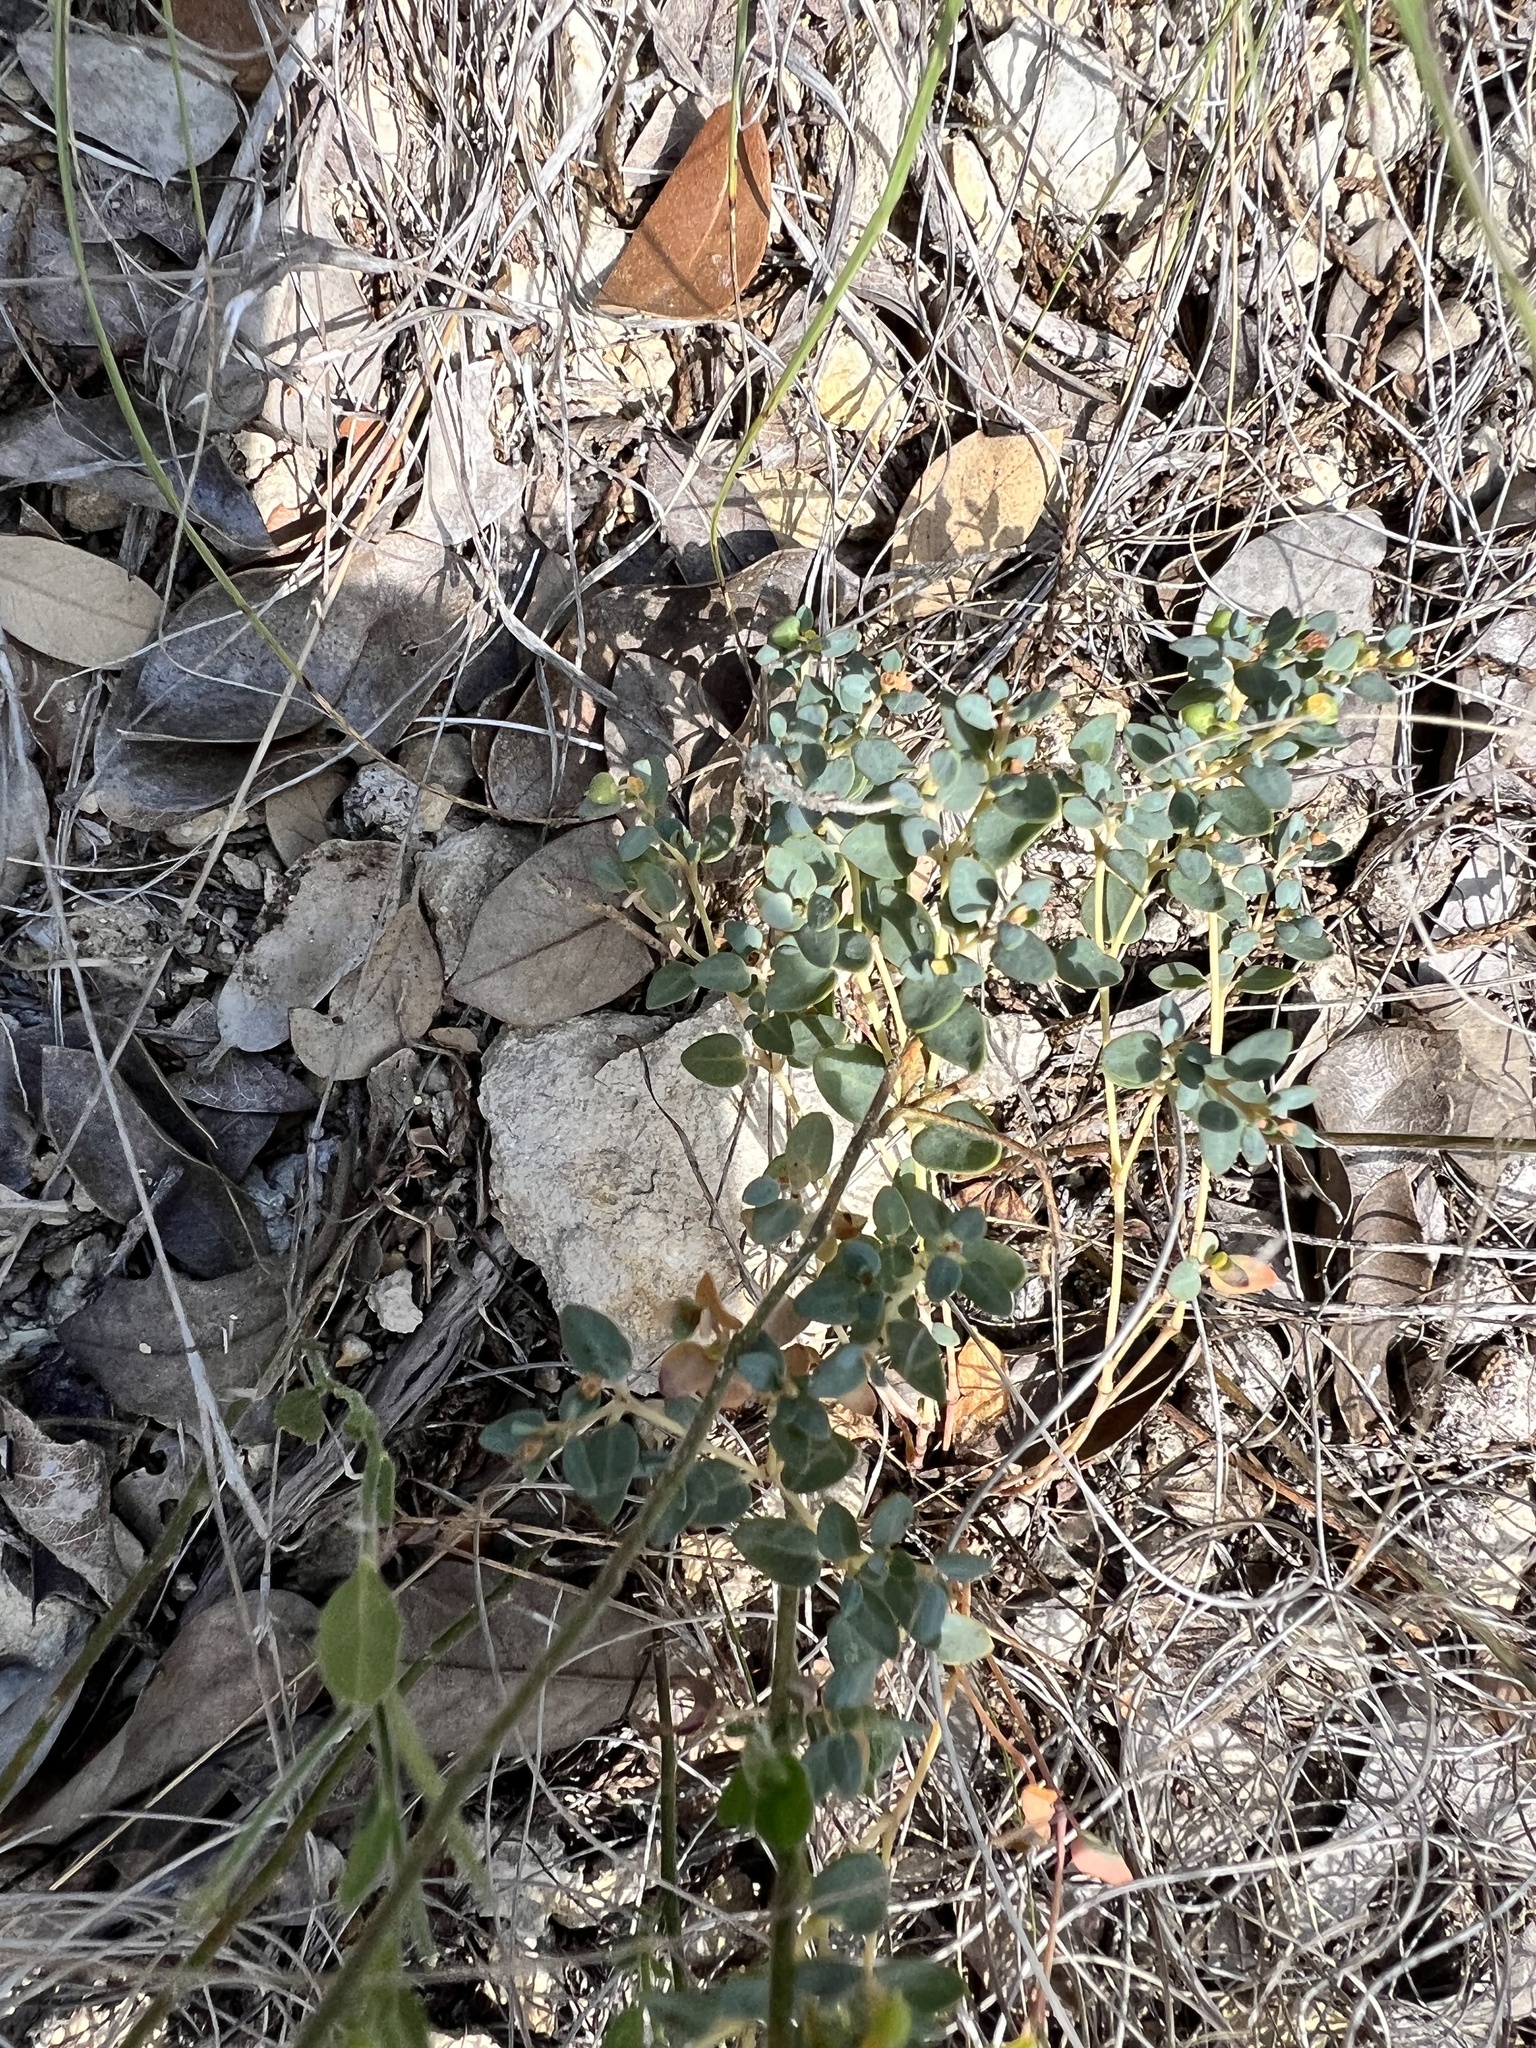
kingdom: Plantae
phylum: Tracheophyta
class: Magnoliopsida
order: Malpighiales
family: Euphorbiaceae
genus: Euphorbia
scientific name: Euphorbia fendleri
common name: Fendler's euphorbia
